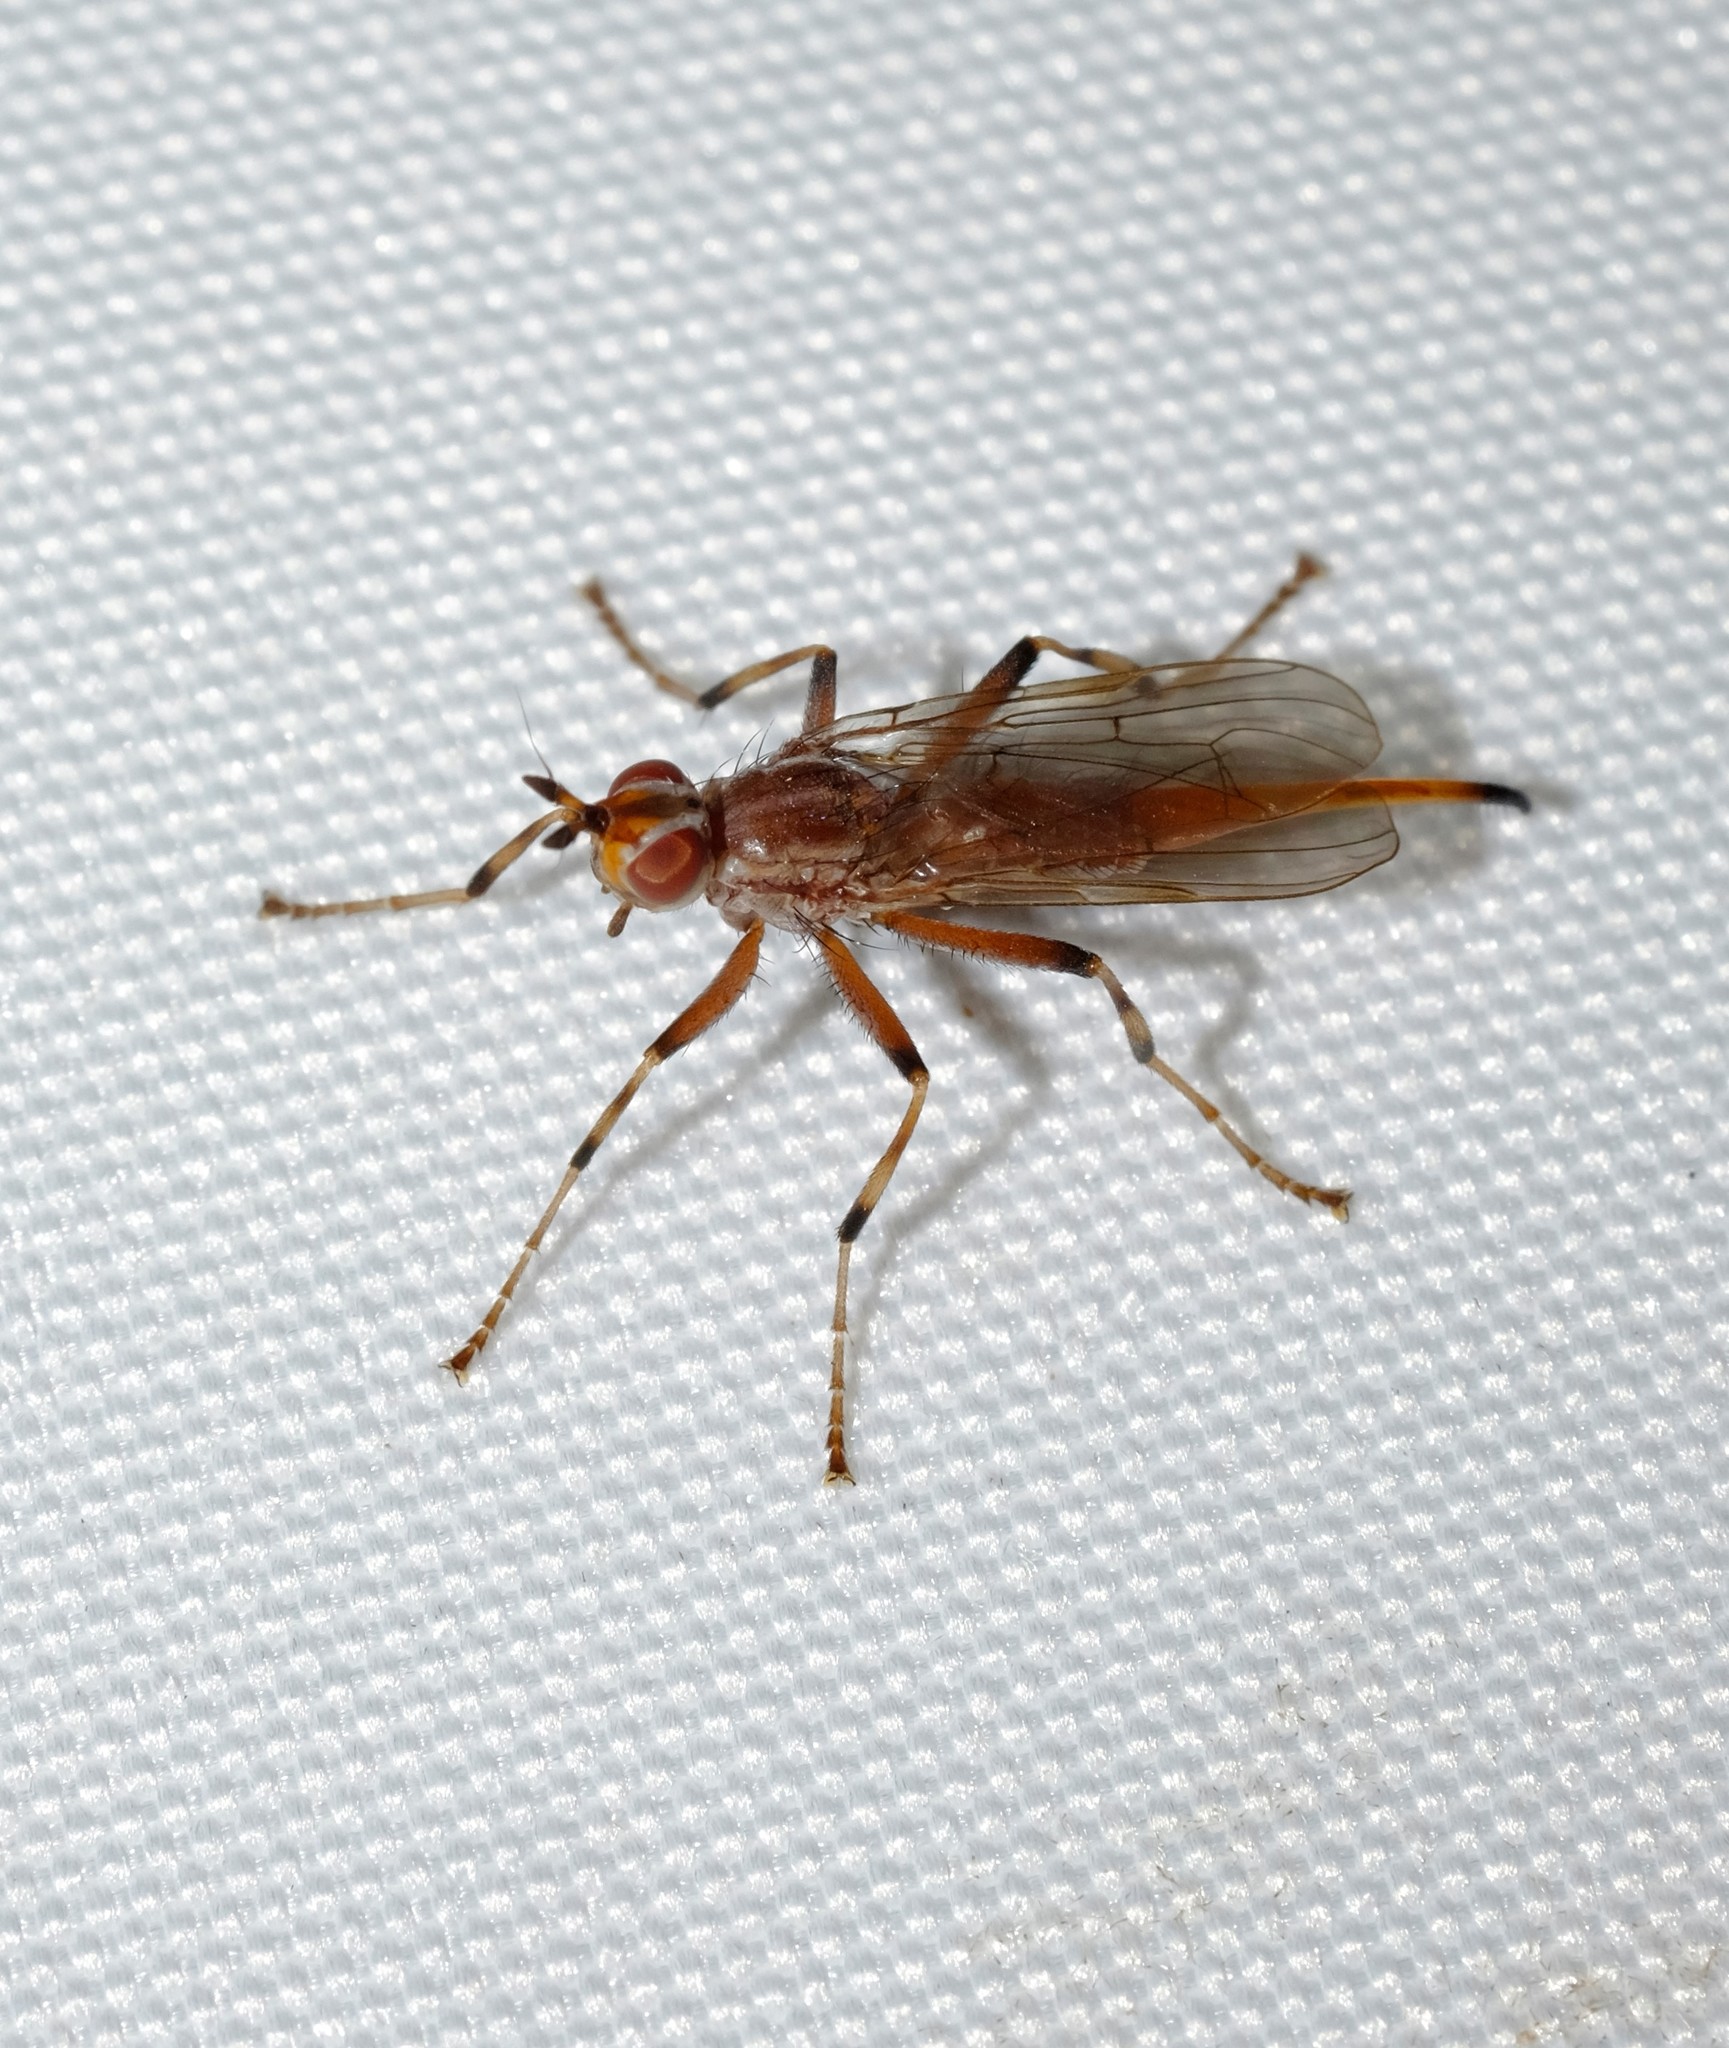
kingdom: Animalia
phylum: Arthropoda
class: Insecta
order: Diptera
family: Pyrgotidae
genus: Osa
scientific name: Osa commoni
